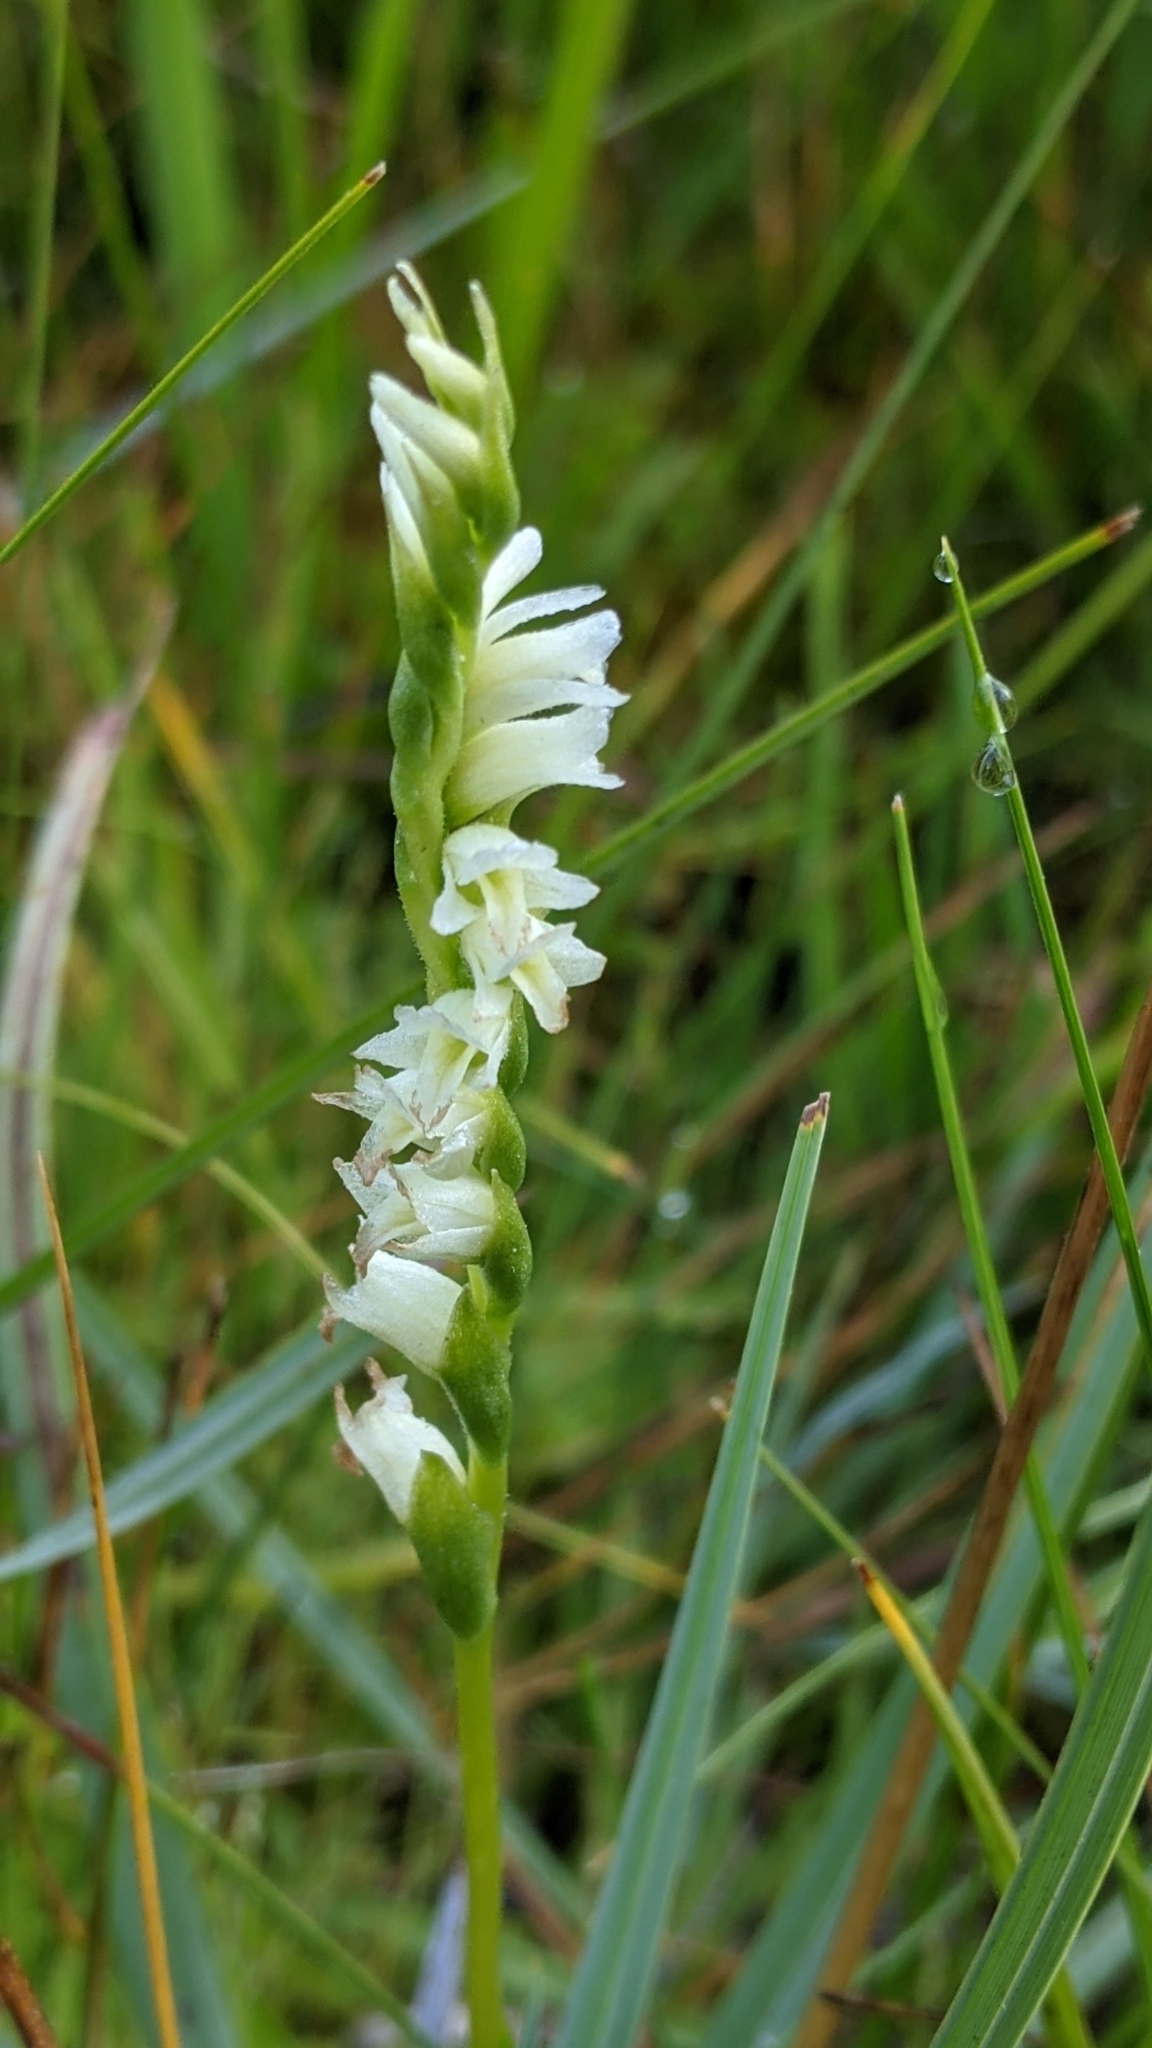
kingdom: Plantae
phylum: Tracheophyta
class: Liliopsida
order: Asparagales
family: Orchidaceae
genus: Spiranthes
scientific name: Spiranthes perexilis
